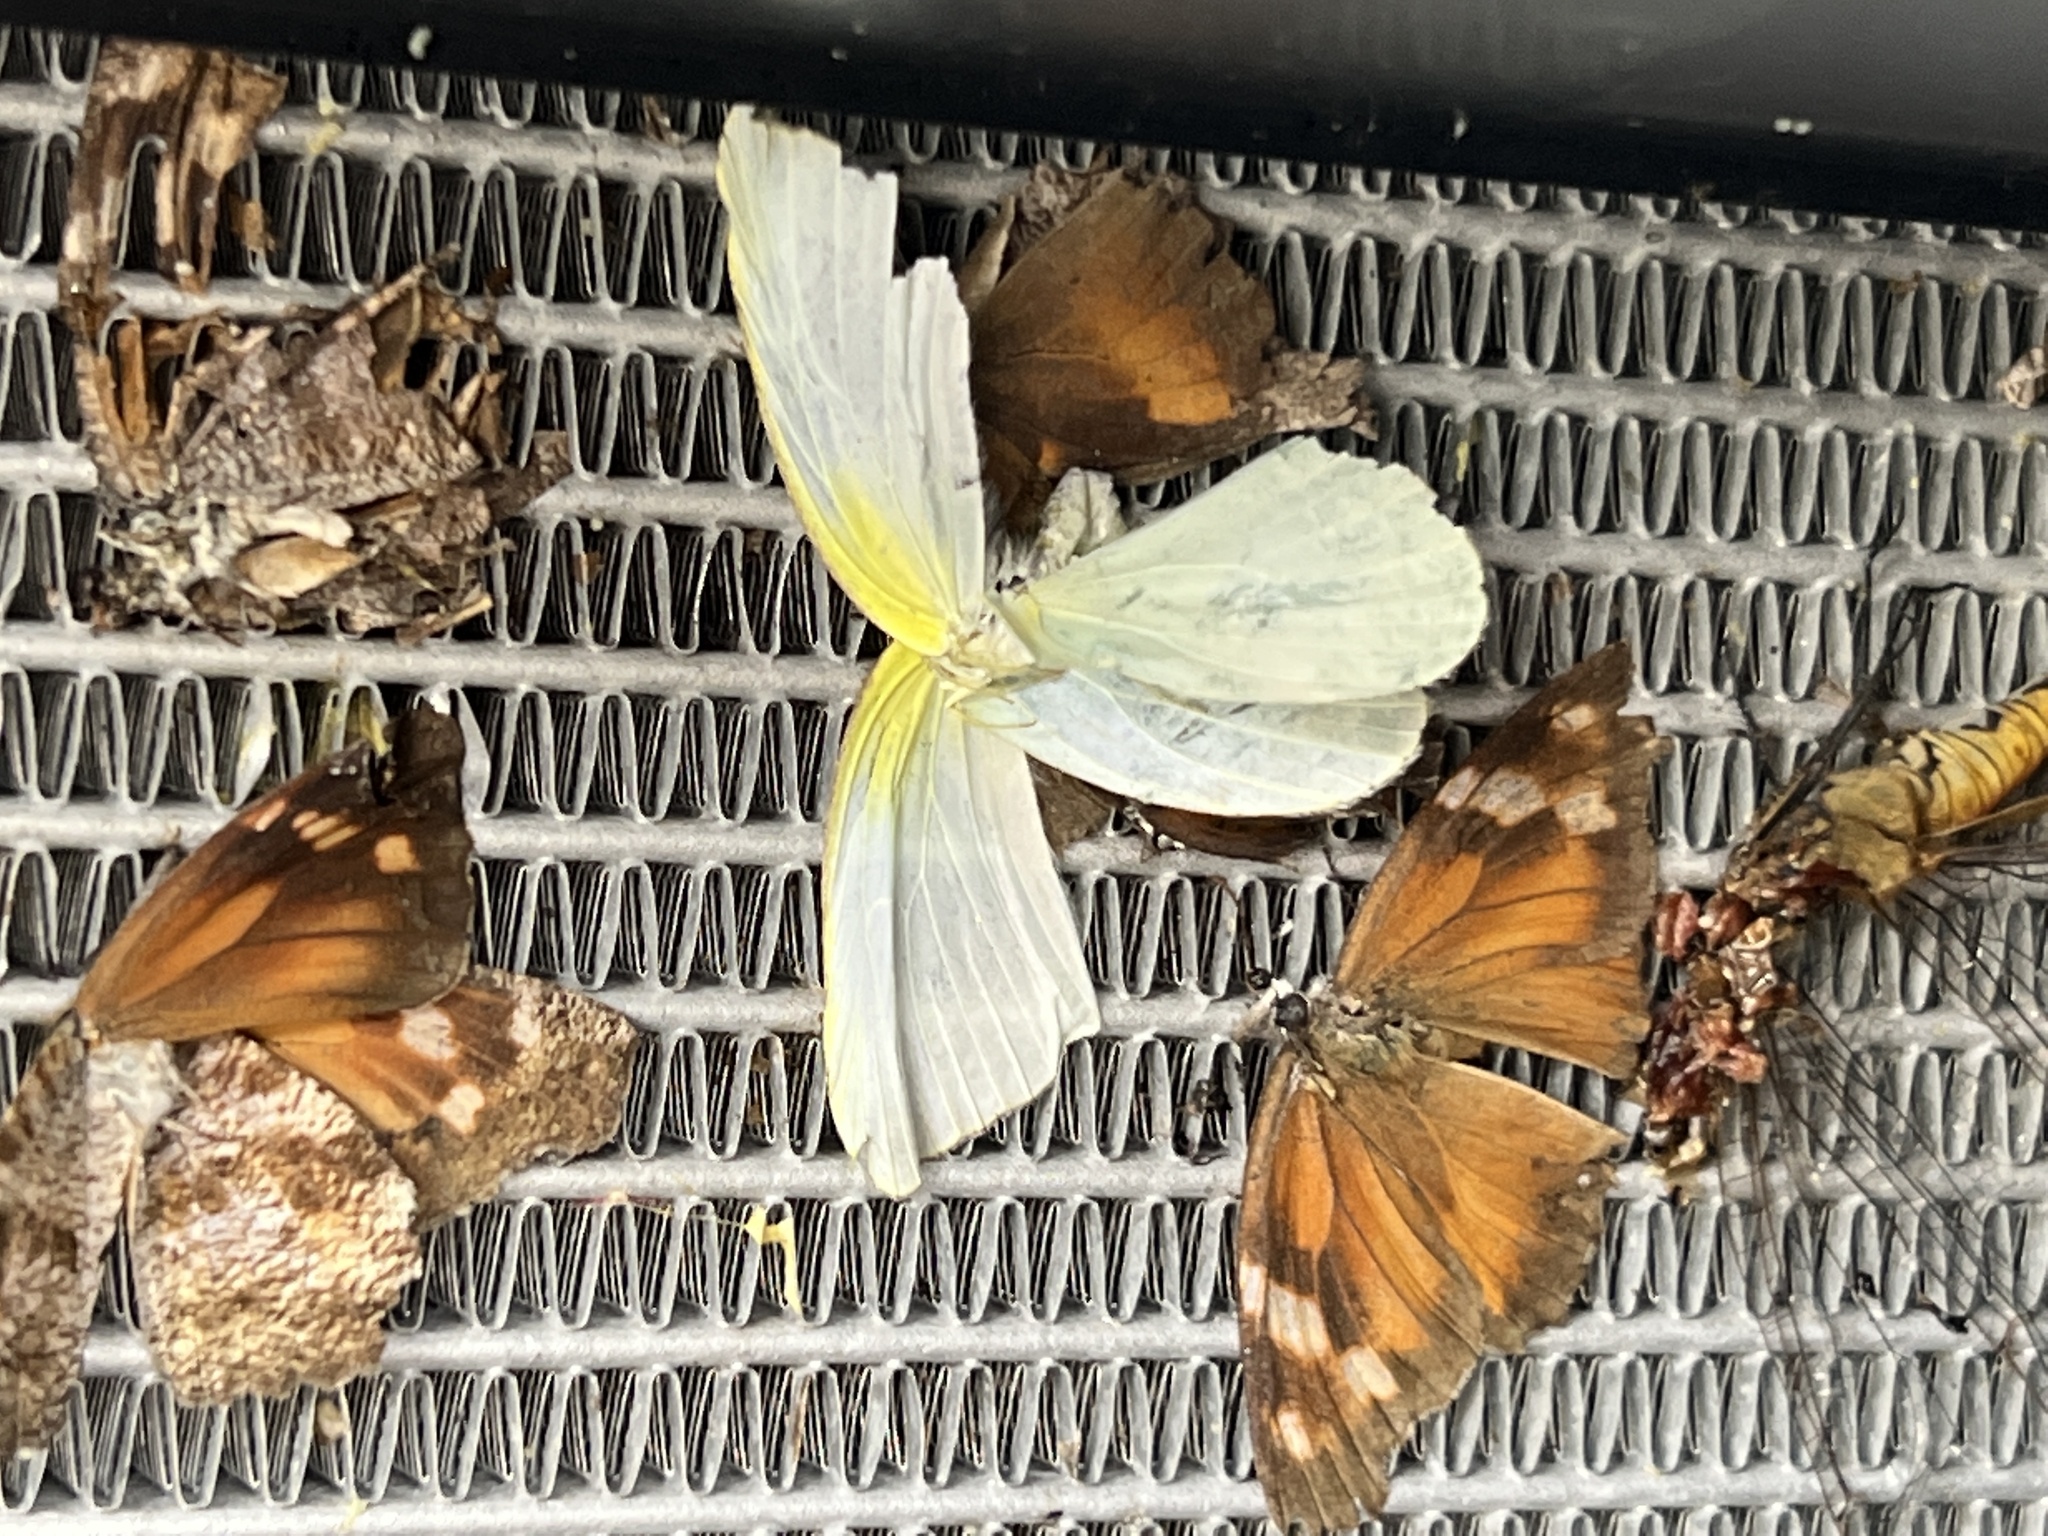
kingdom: Animalia
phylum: Arthropoda
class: Insecta
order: Lepidoptera
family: Pieridae
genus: Kricogonia
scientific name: Kricogonia lyside
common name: Guayacan sulphur,
